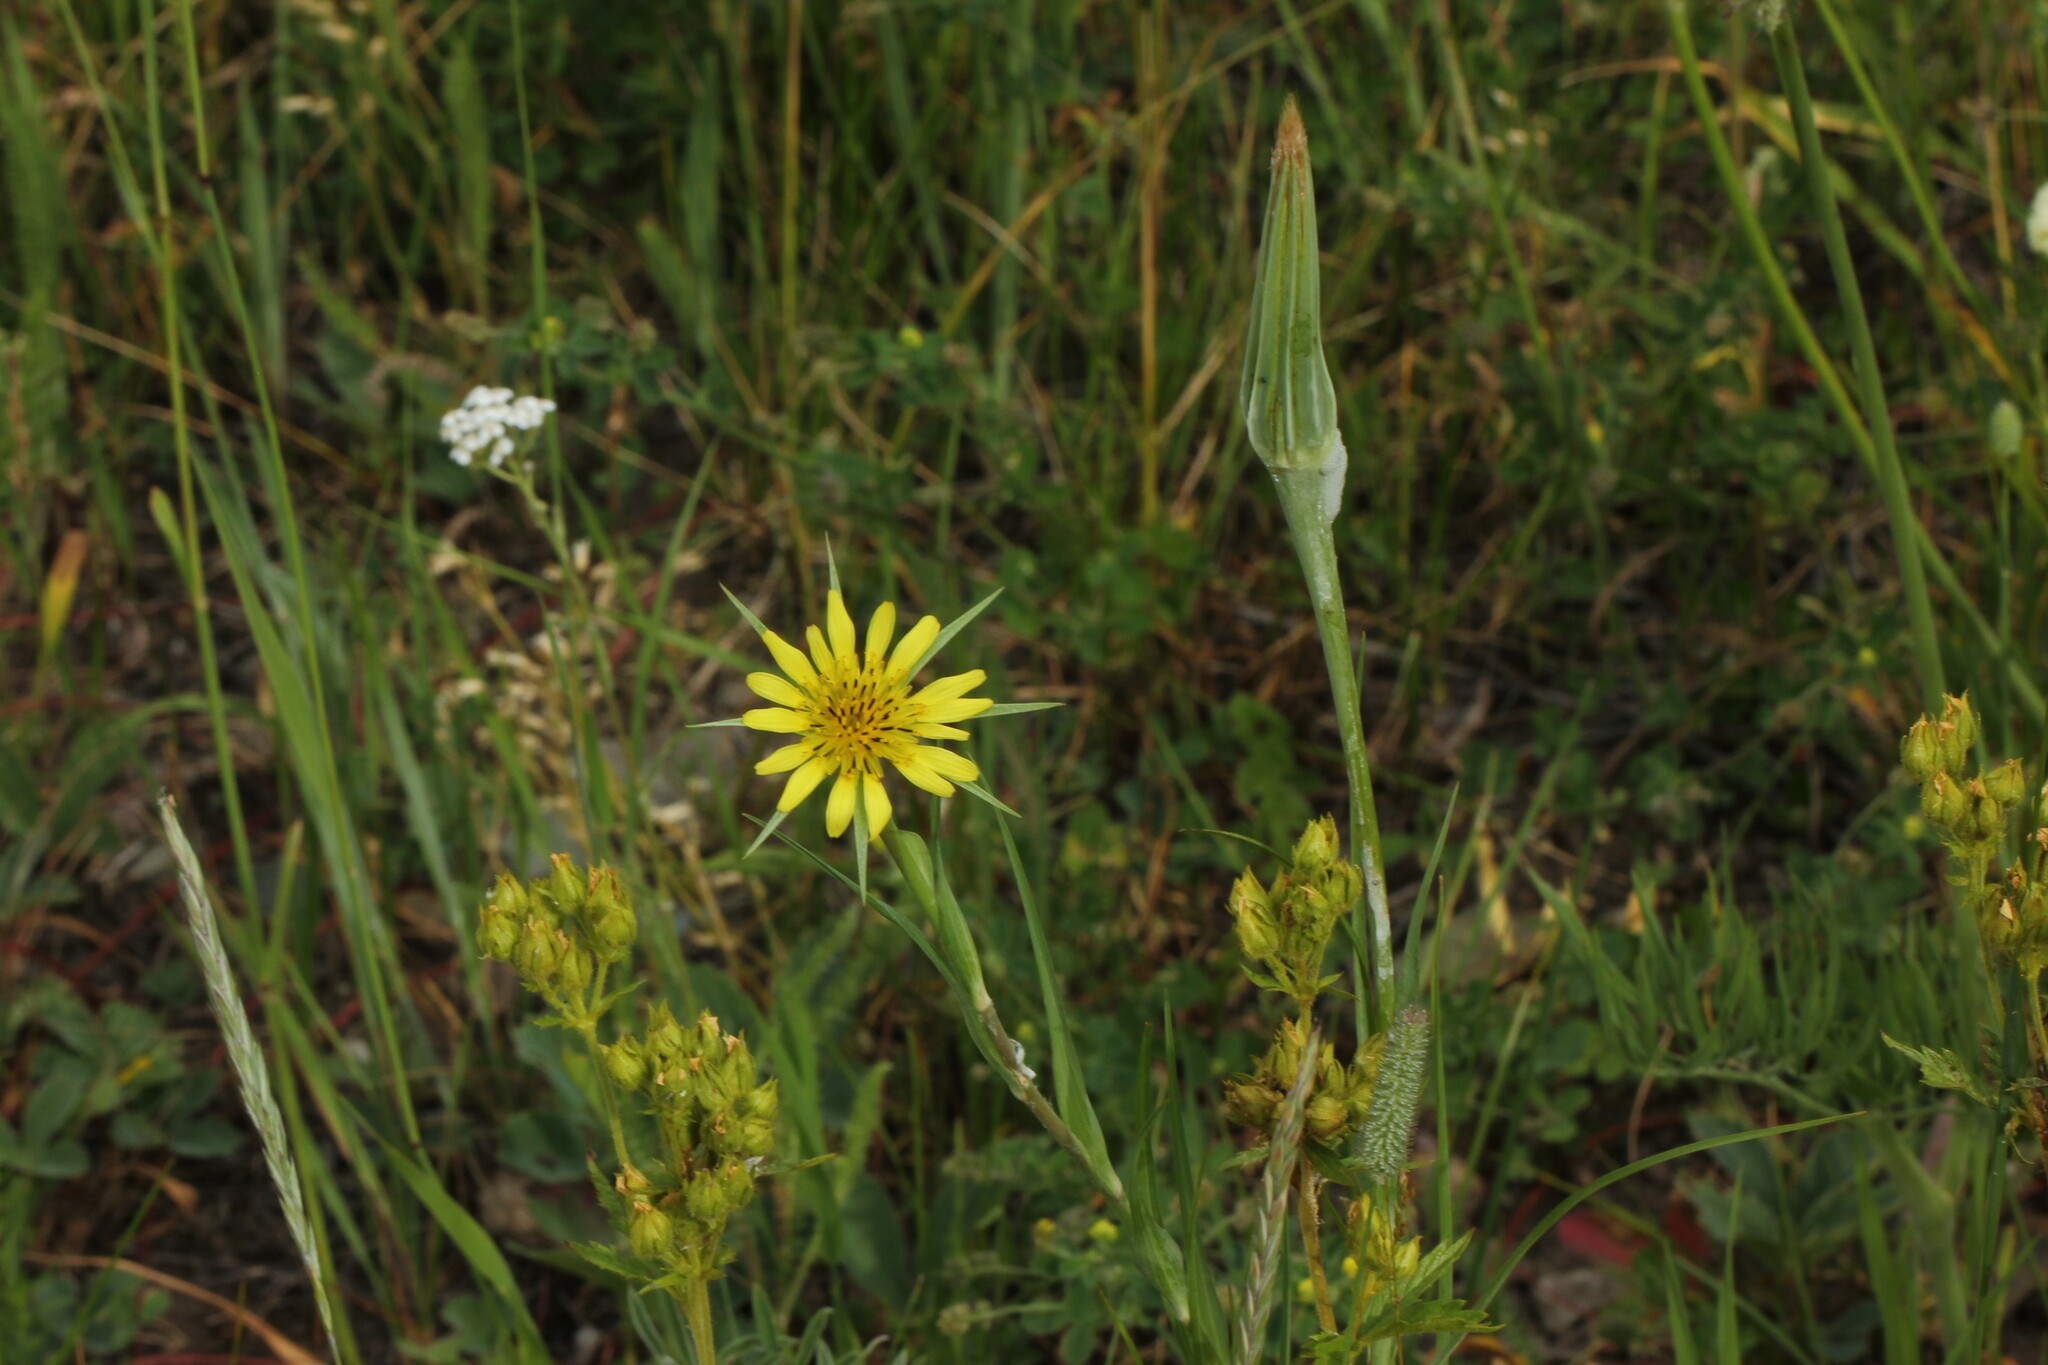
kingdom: Plantae
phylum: Tracheophyta
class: Magnoliopsida
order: Asterales
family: Asteraceae
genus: Tragopogon
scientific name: Tragopogon dubius
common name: Yellow salsify
